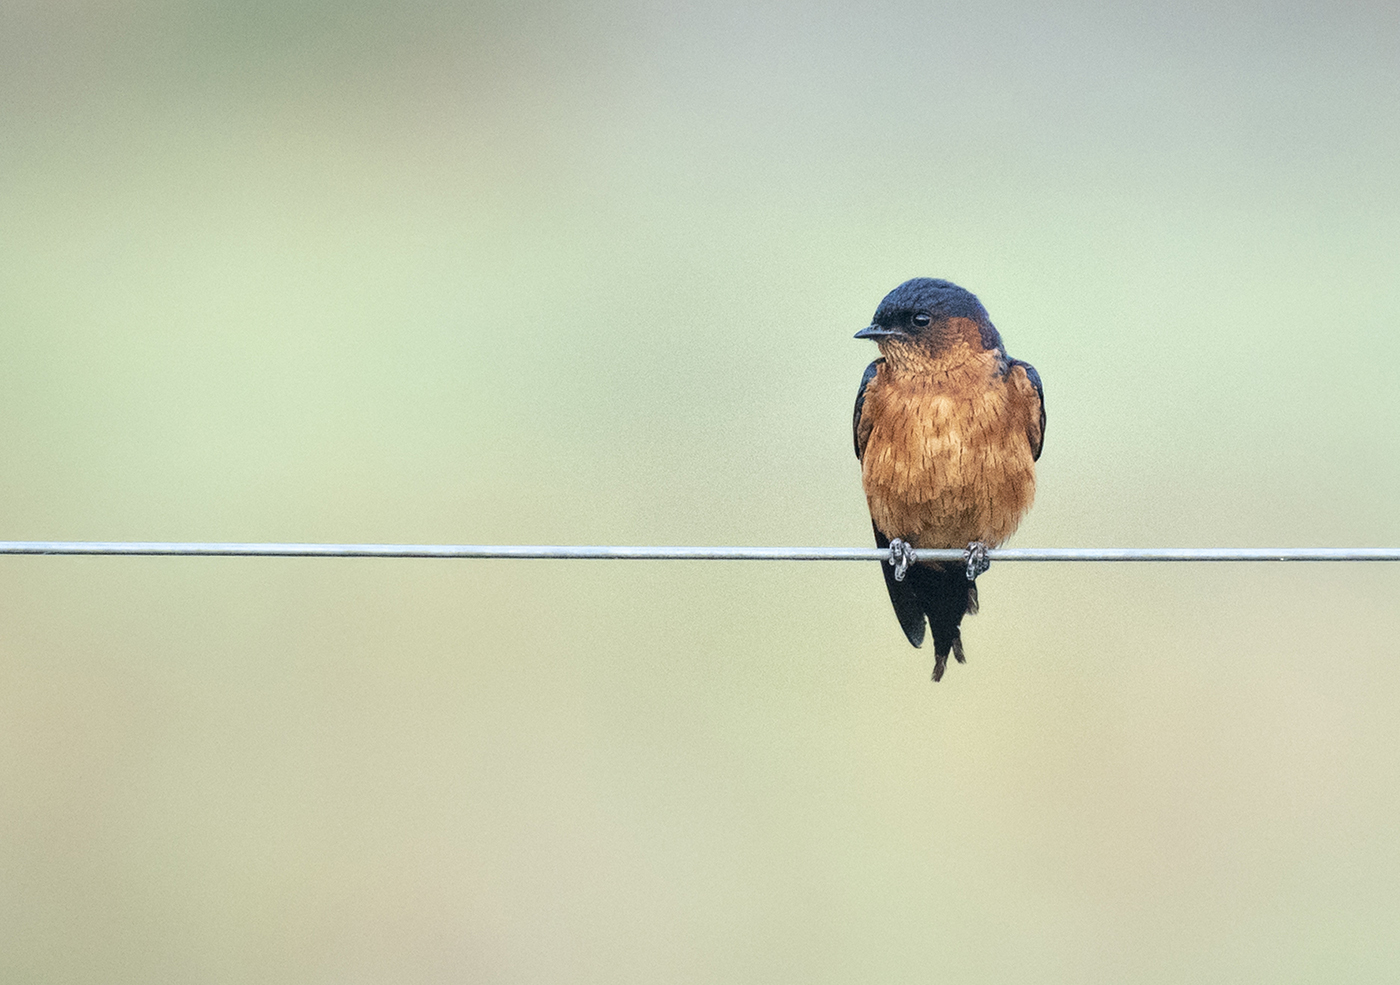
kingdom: Animalia
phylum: Chordata
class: Aves
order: Passeriformes
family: Hirundinidae
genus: Cecropis
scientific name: Cecropis hyperythra
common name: Sri lanka swallow
